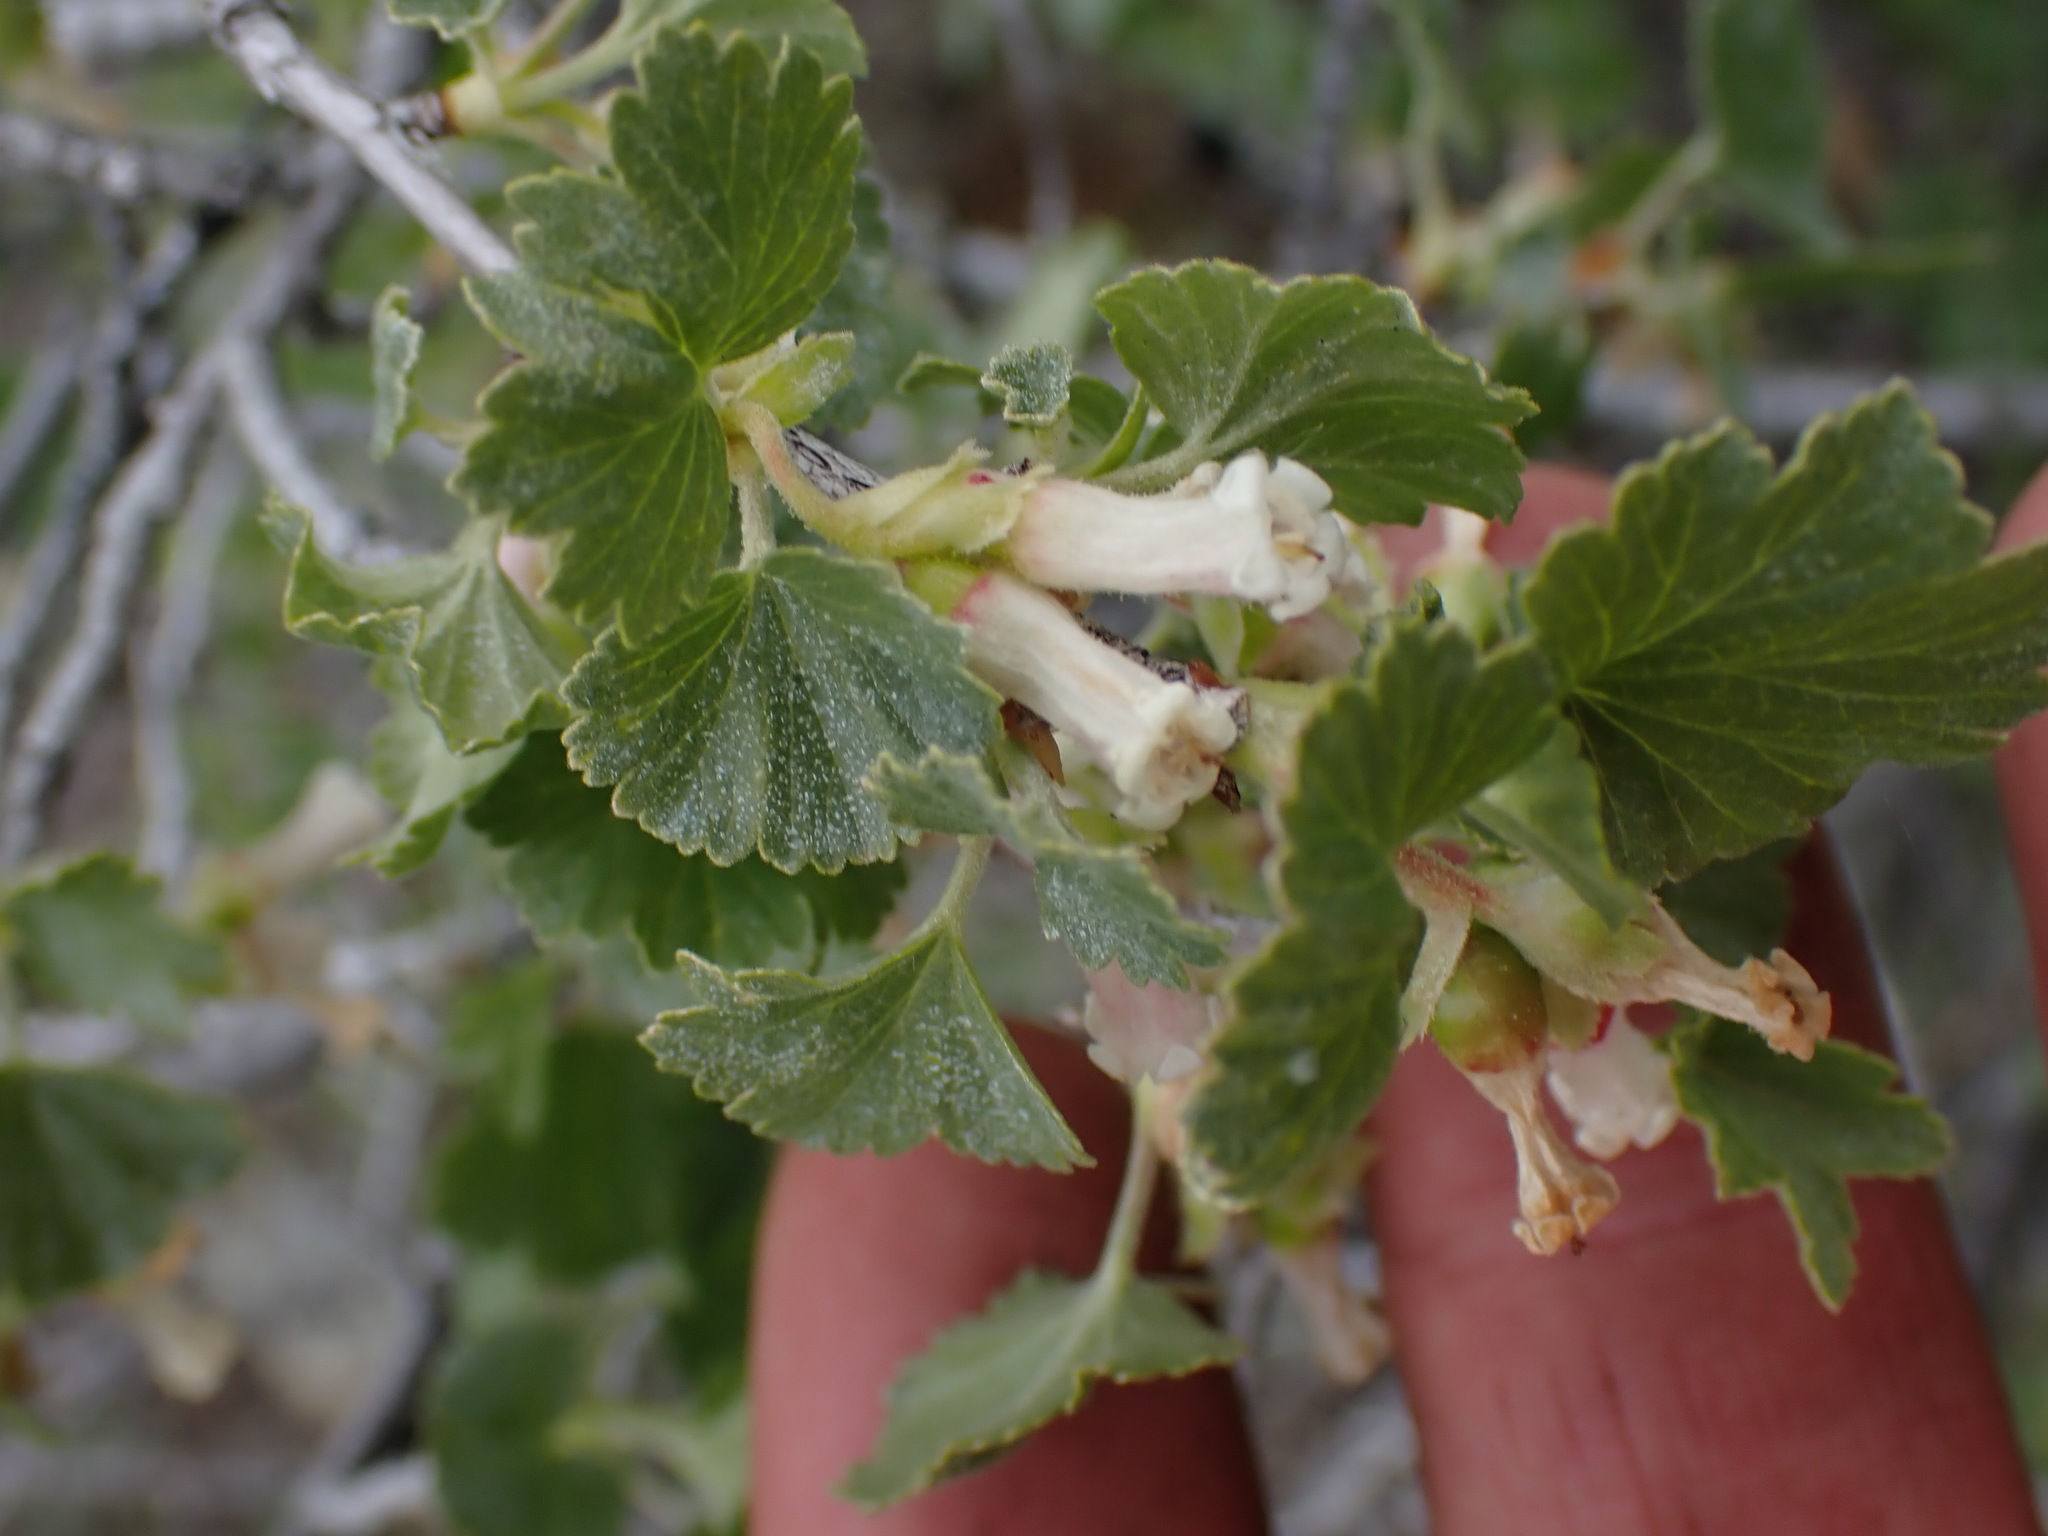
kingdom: Plantae
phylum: Tracheophyta
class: Magnoliopsida
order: Saxifragales
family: Grossulariaceae
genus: Ribes
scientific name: Ribes cereum
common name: Wax currant
